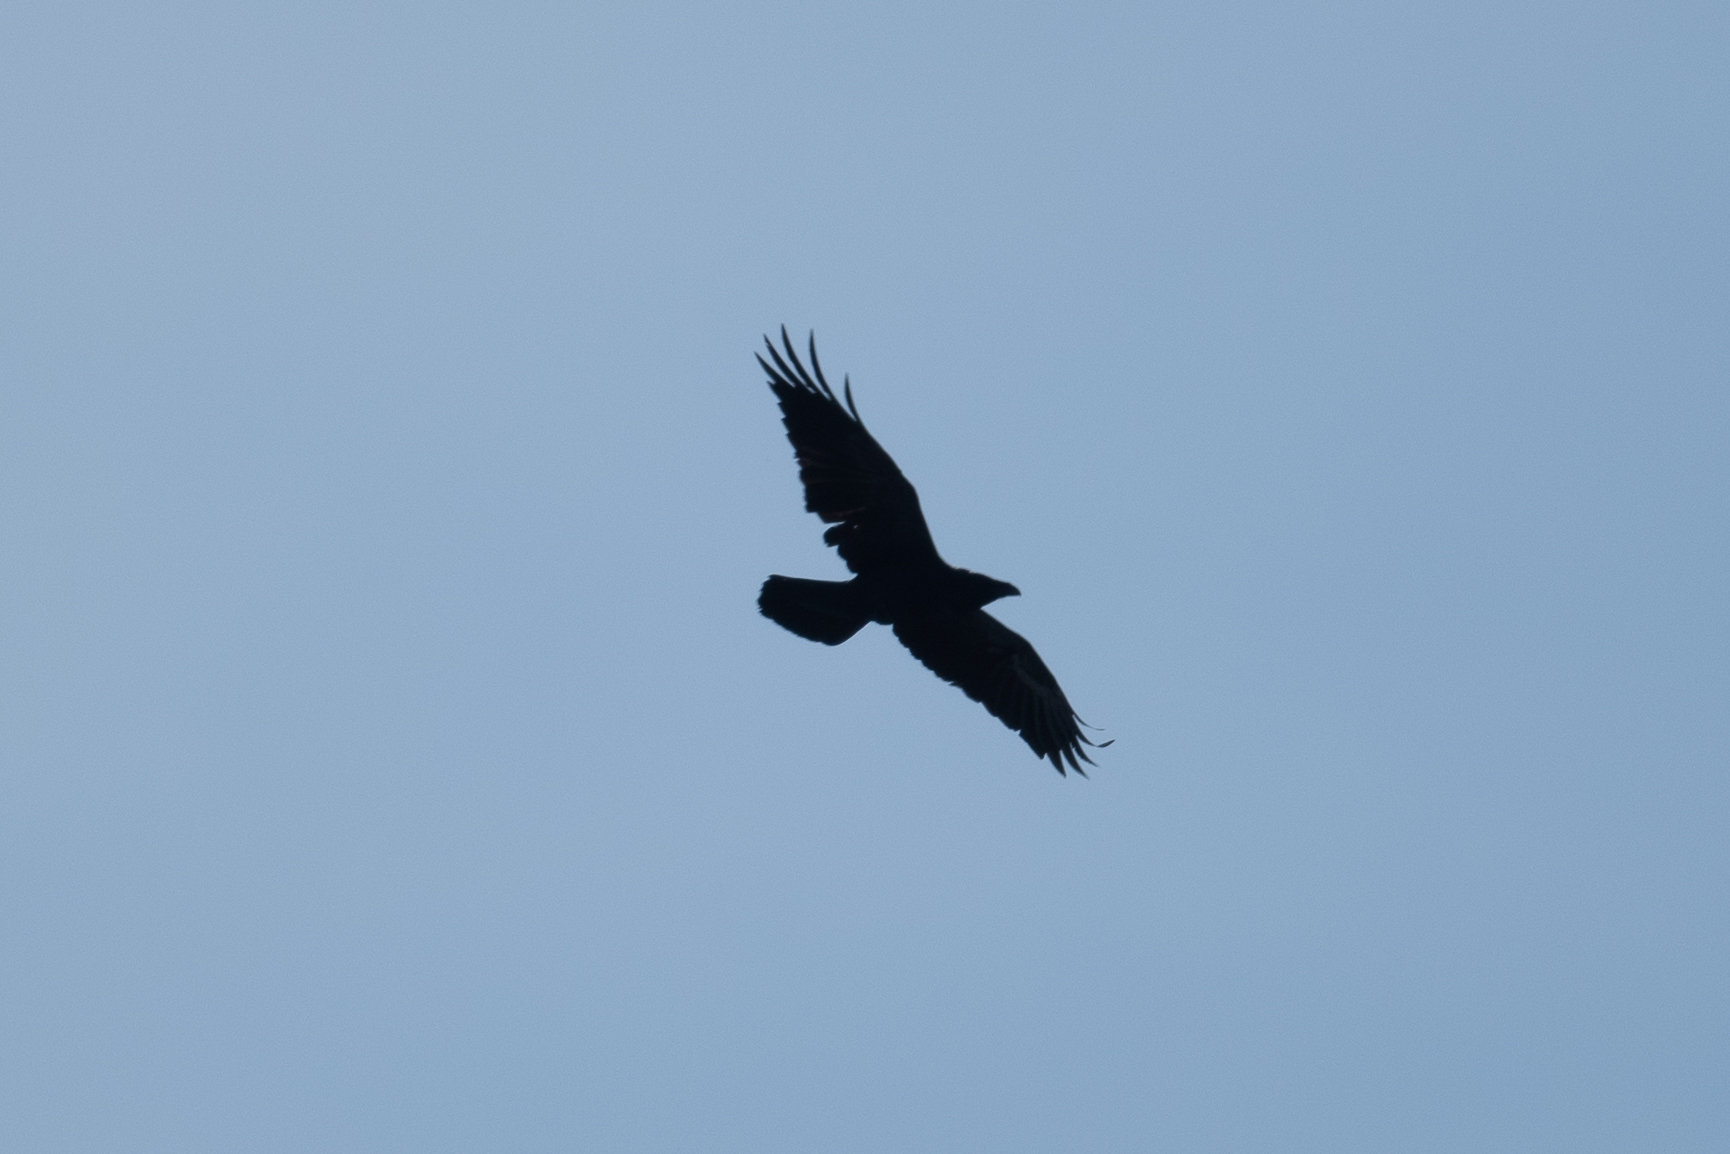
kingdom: Animalia
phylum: Chordata
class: Aves
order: Passeriformes
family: Corvidae
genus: Corvus
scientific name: Corvus corax
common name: Common raven
